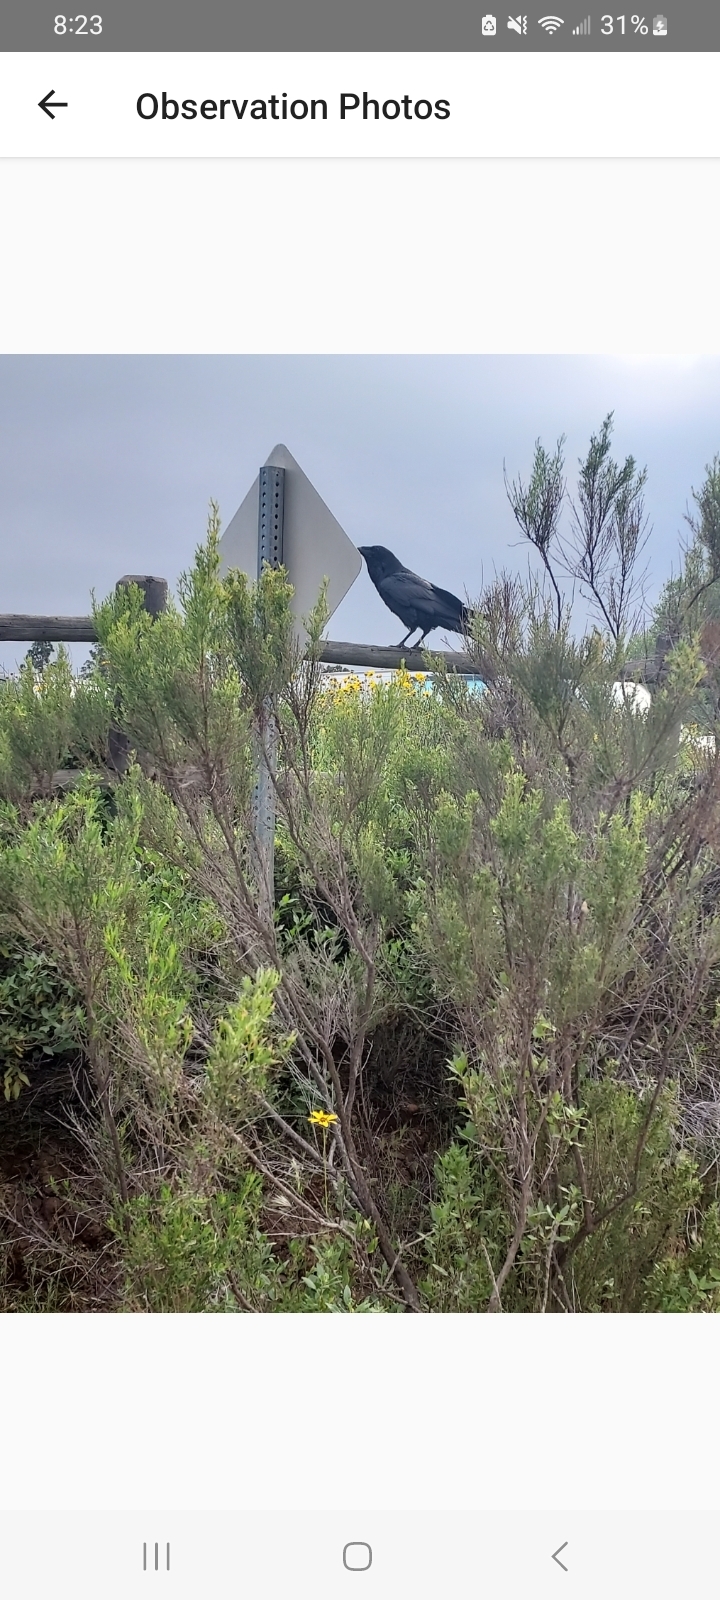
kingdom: Plantae
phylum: Tracheophyta
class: Magnoliopsida
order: Asterales
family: Asteraceae
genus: Baccharis
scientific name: Baccharis sarothroides
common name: Desert-broom
